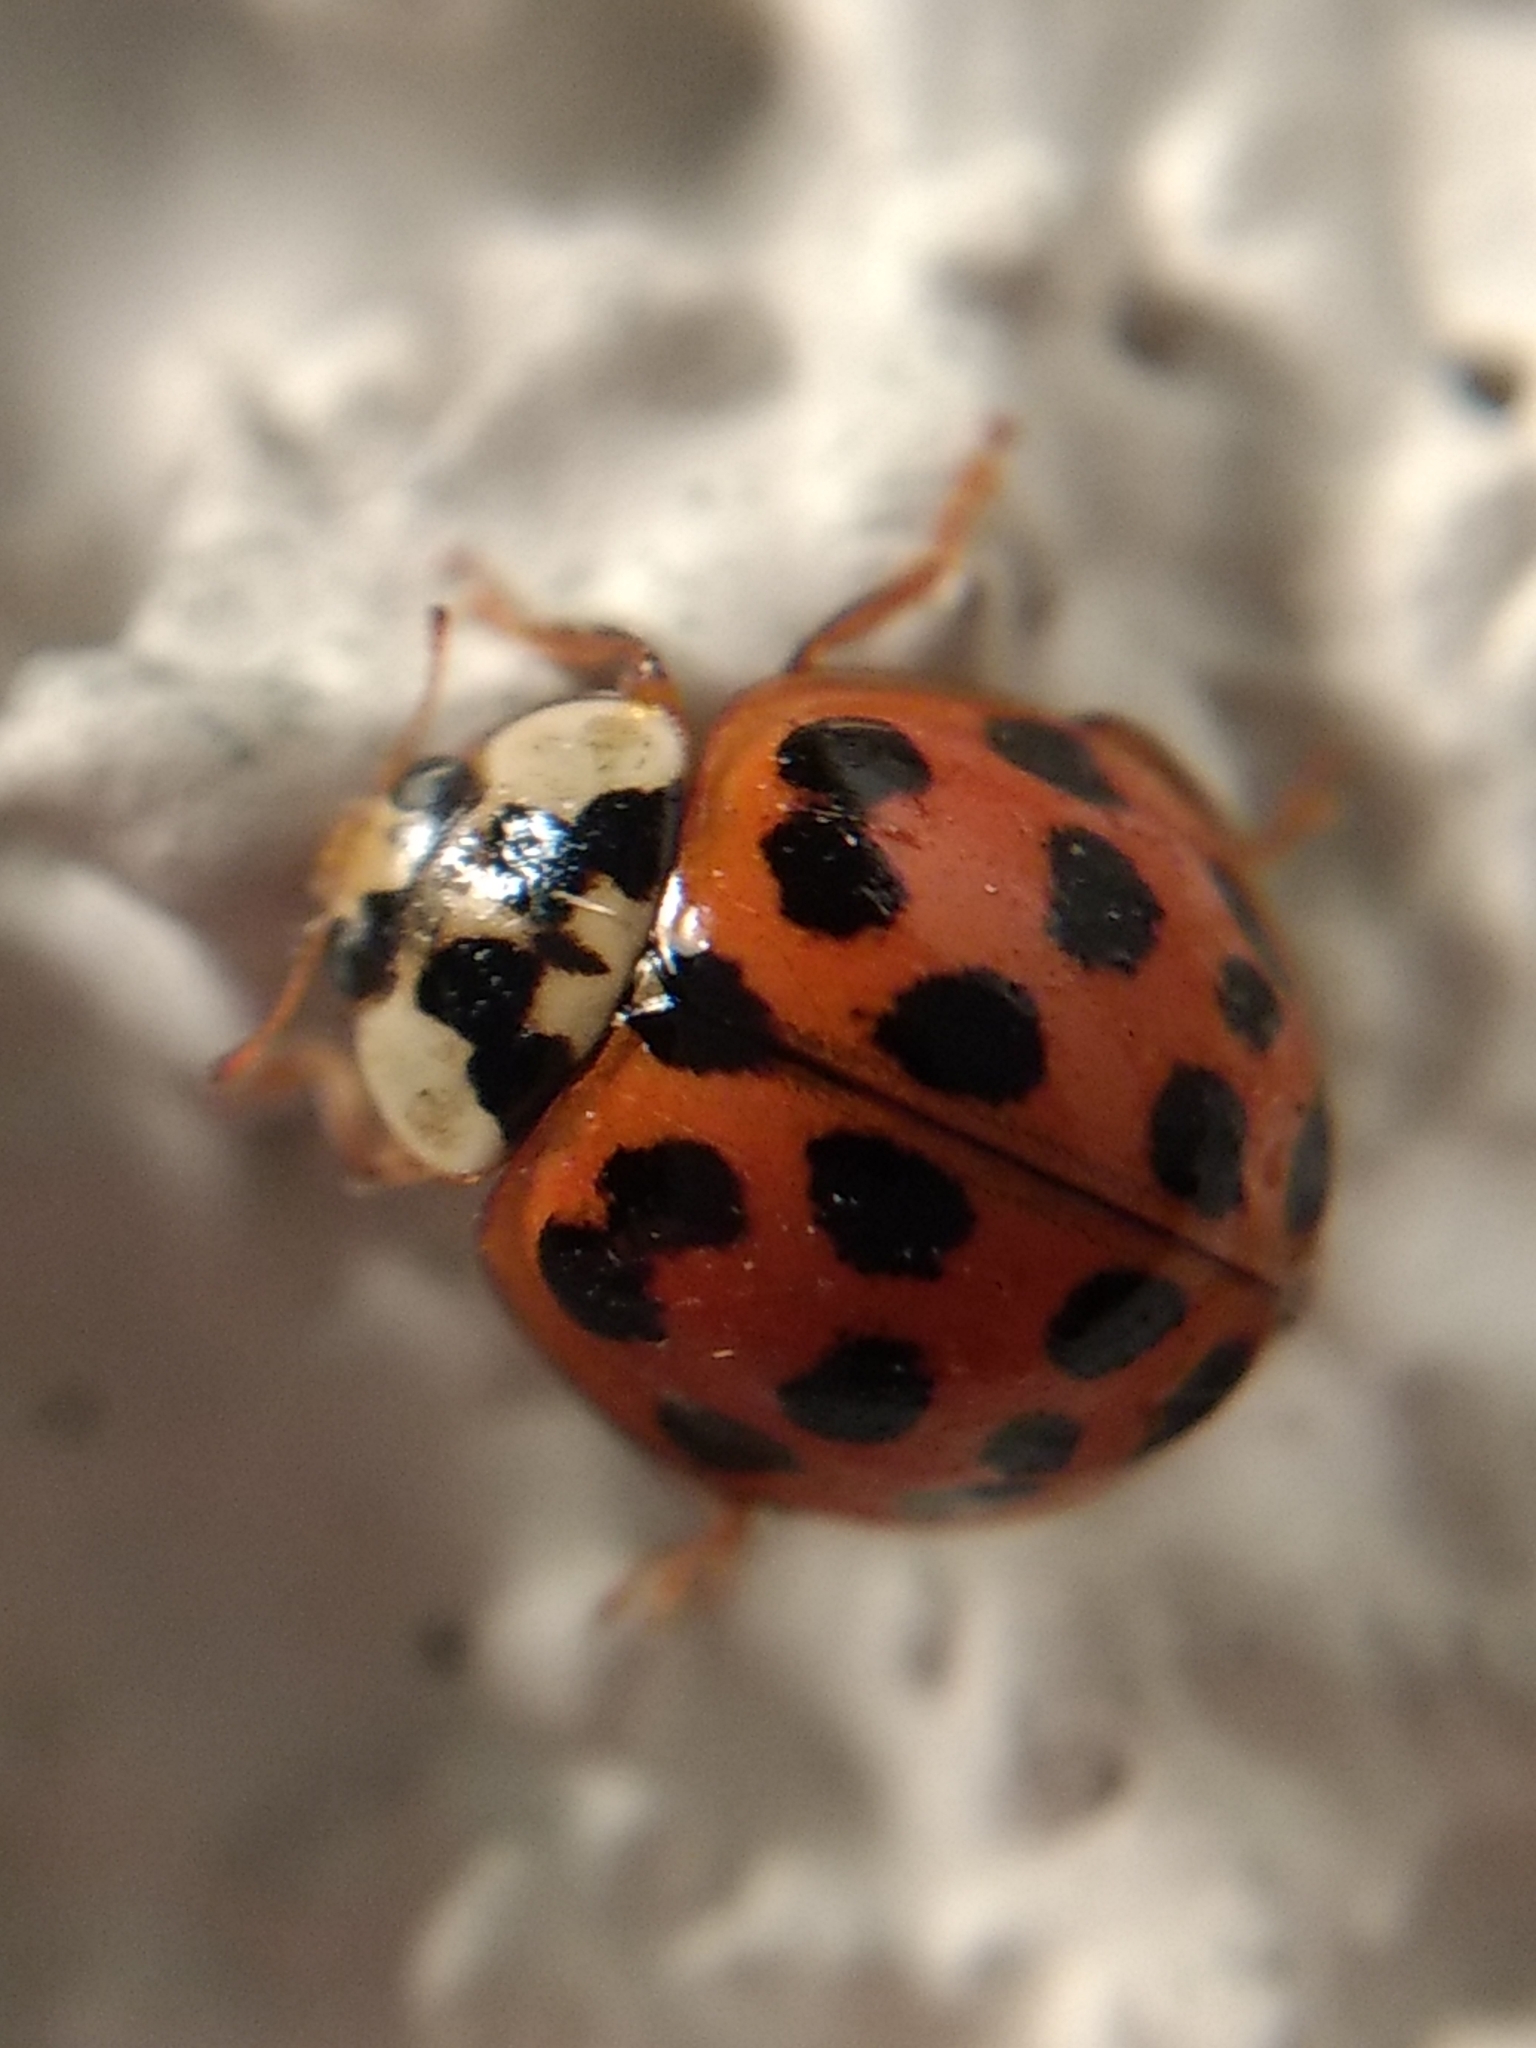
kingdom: Animalia
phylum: Arthropoda
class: Insecta
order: Coleoptera
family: Coccinellidae
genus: Harmonia
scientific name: Harmonia axyridis
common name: Harlequin ladybird
